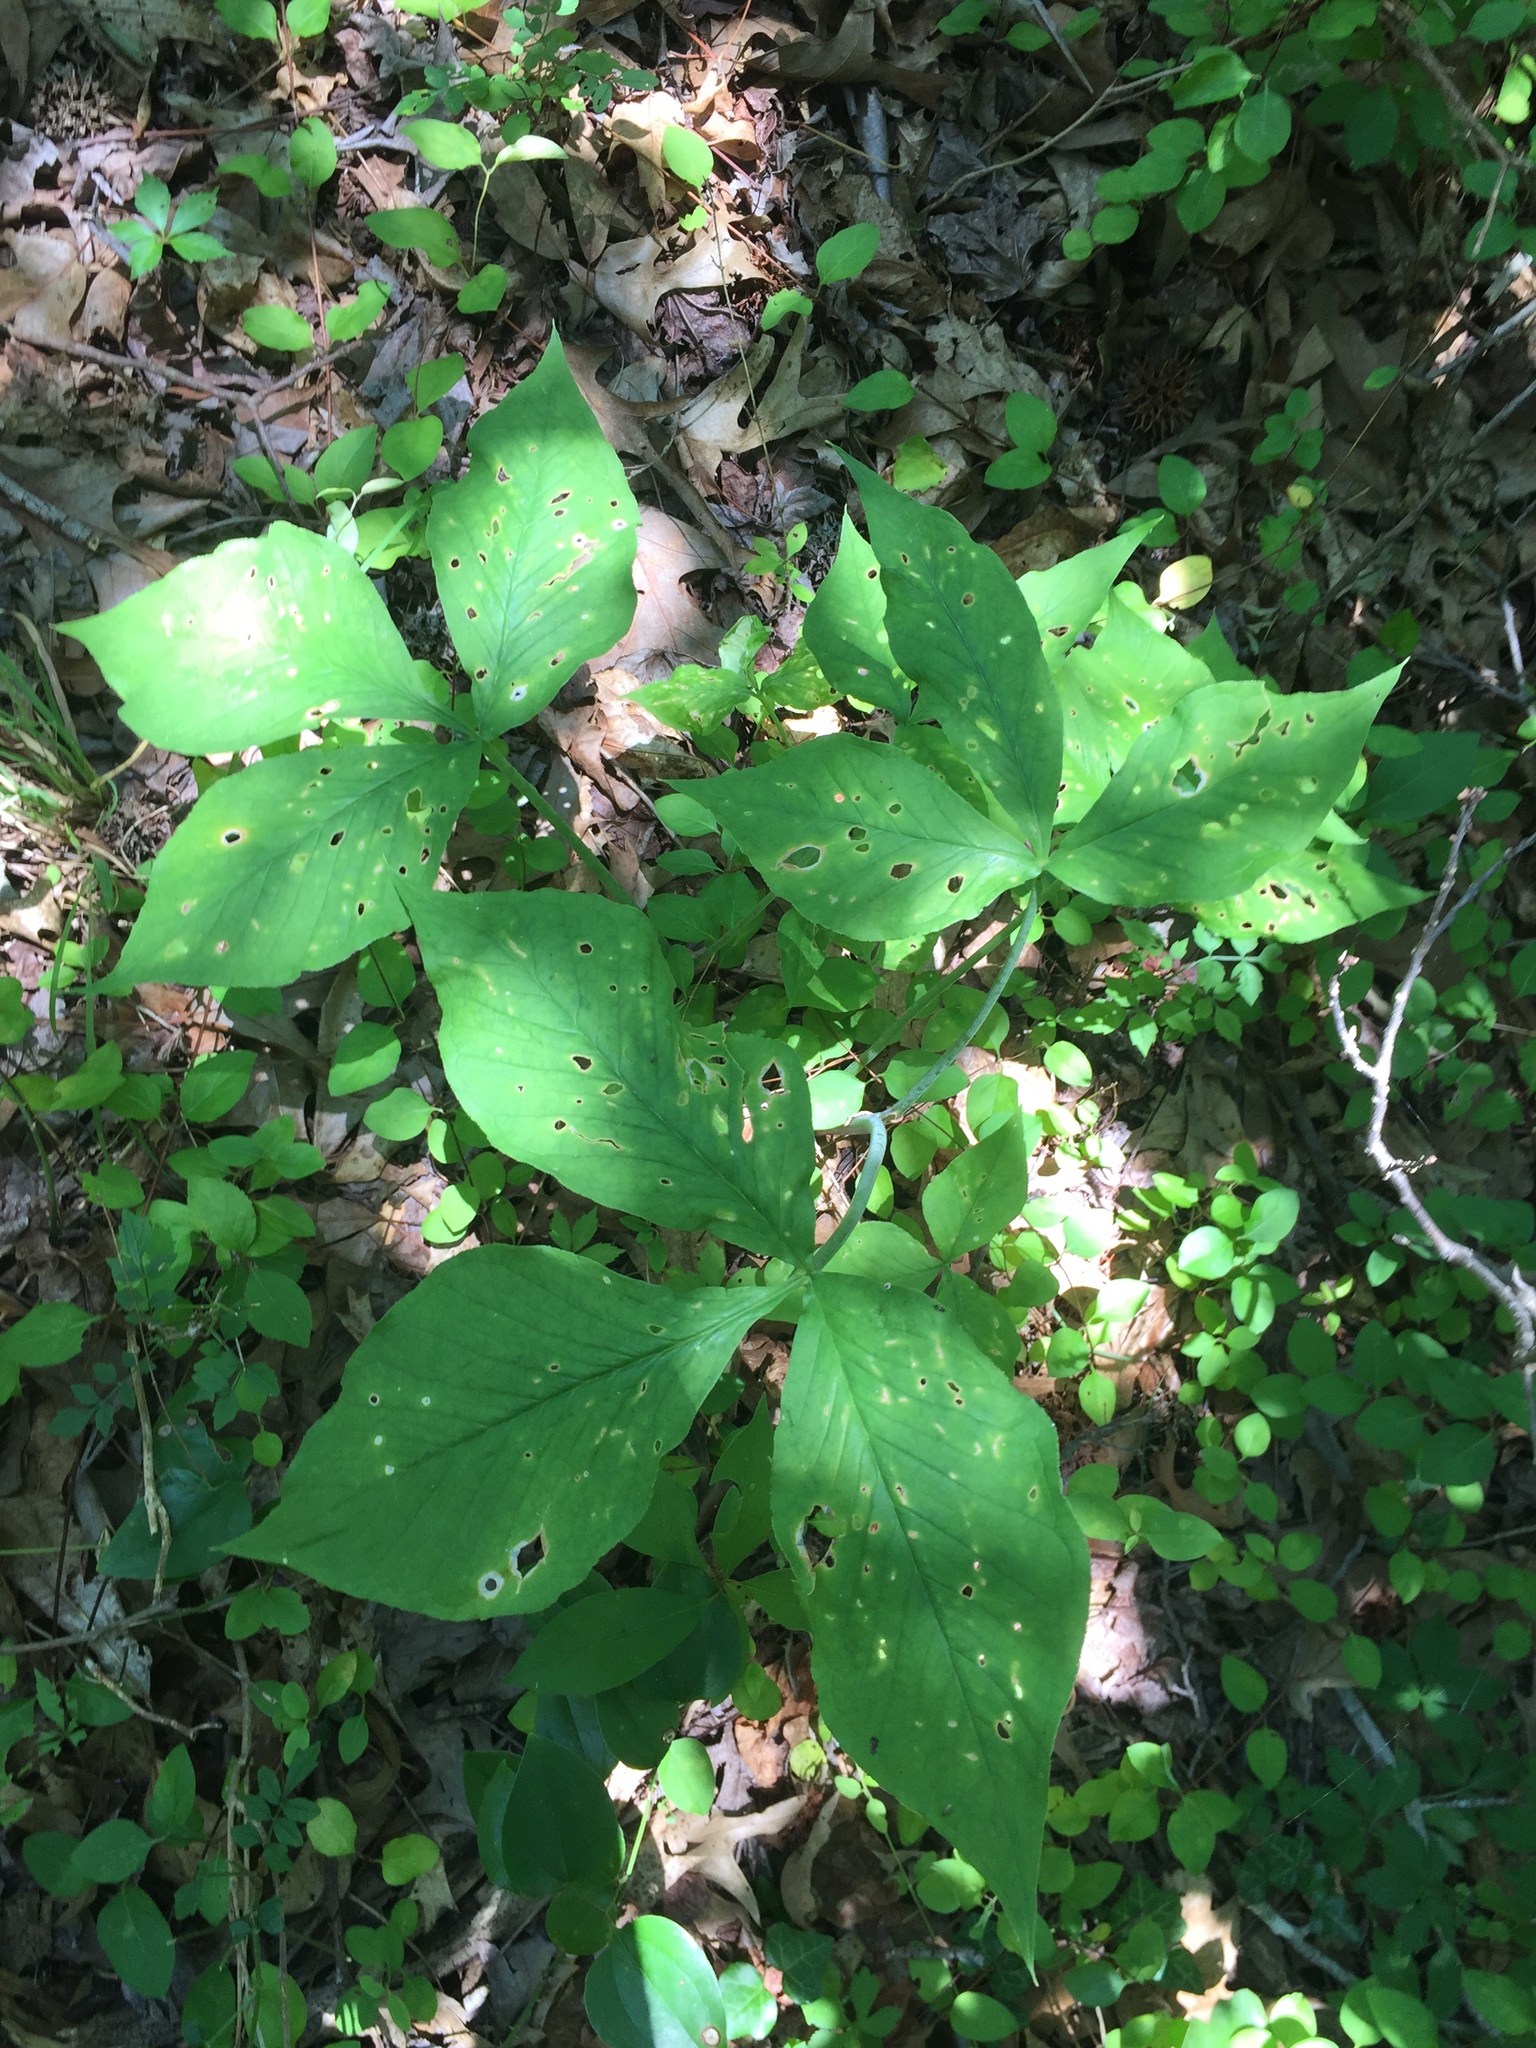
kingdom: Plantae
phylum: Tracheophyta
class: Liliopsida
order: Alismatales
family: Araceae
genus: Arisaema
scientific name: Arisaema triphyllum
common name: Jack-in-the-pulpit
